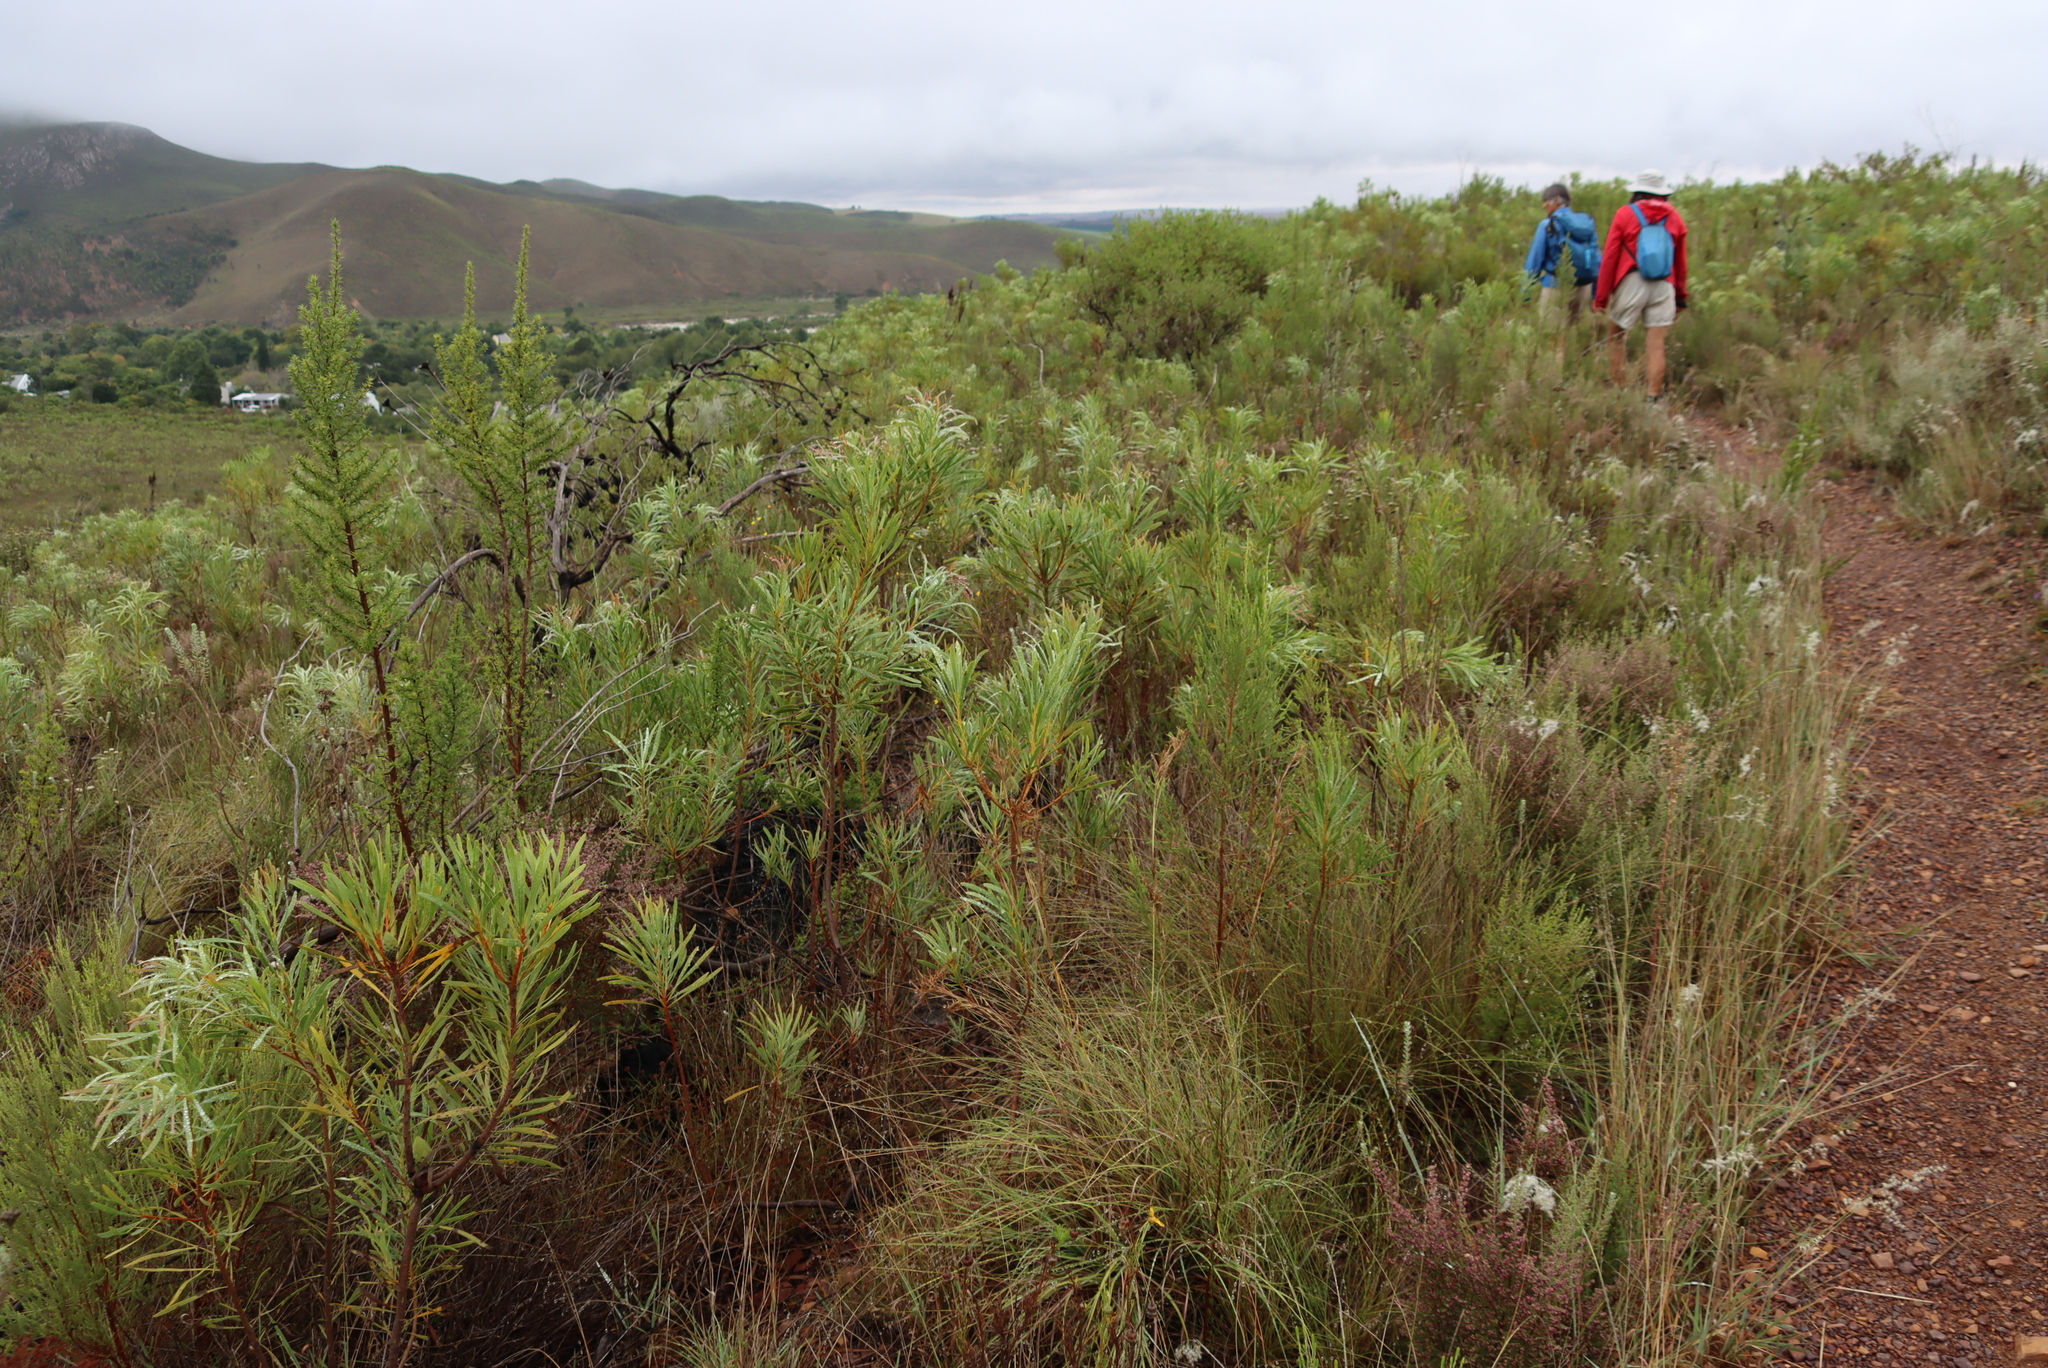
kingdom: Plantae
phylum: Tracheophyta
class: Magnoliopsida
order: Proteales
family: Proteaceae
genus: Protea
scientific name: Protea repens
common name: Sugarbush
